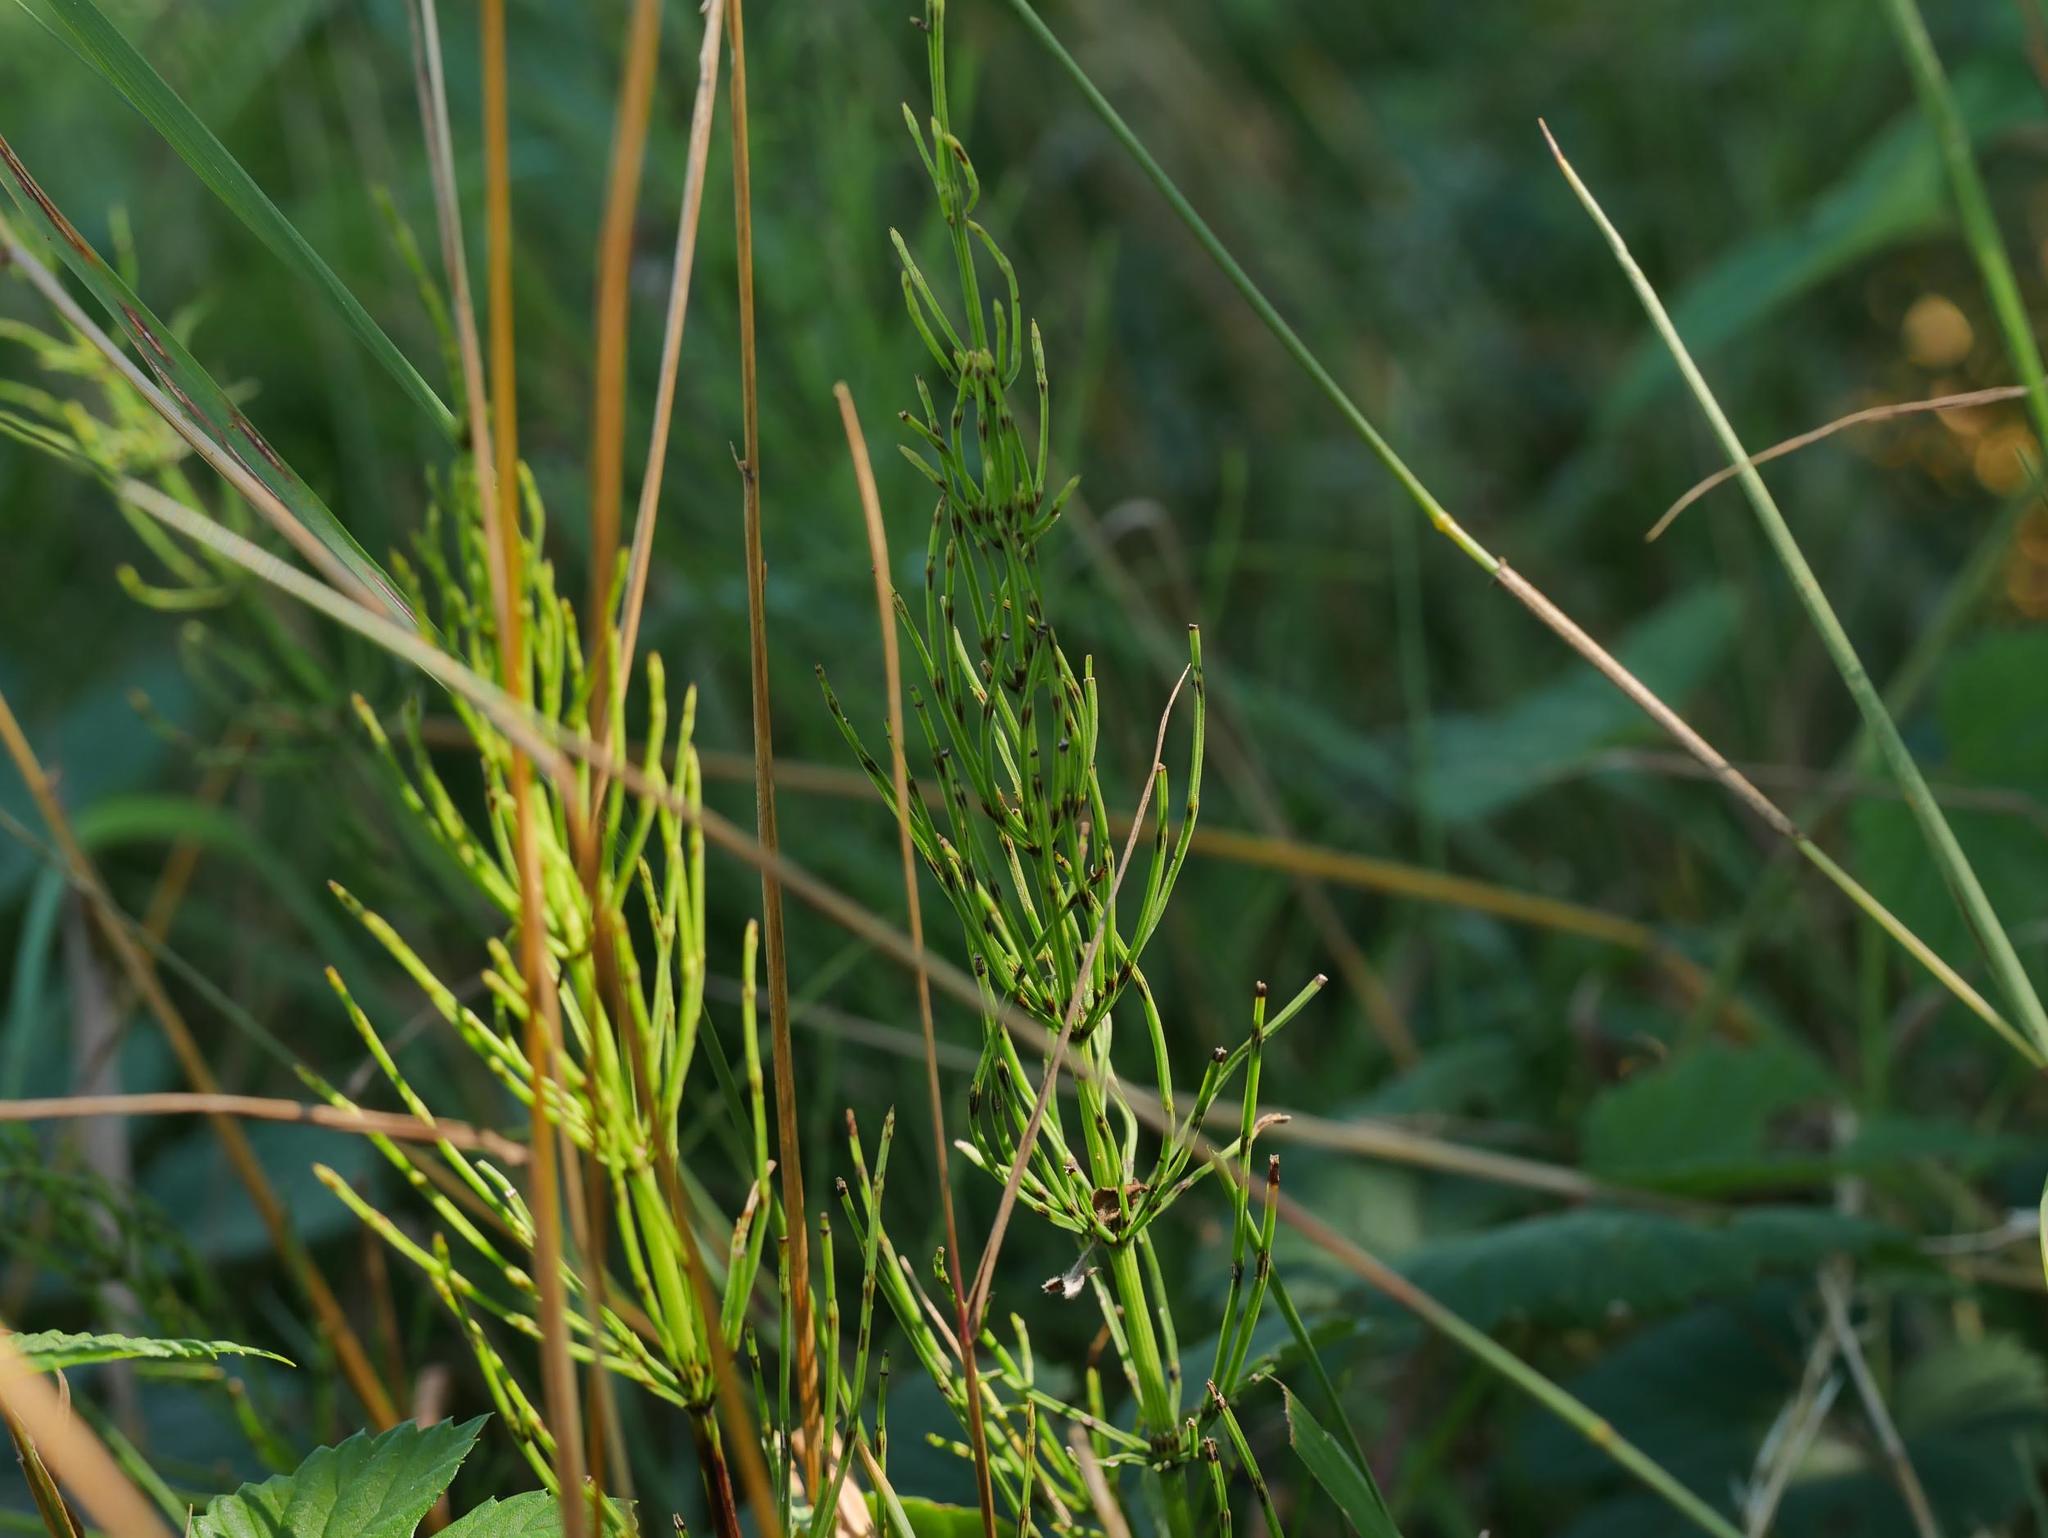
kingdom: Plantae
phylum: Tracheophyta
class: Polypodiopsida
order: Equisetales
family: Equisetaceae
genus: Equisetum
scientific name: Equisetum arvense
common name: Field horsetail
